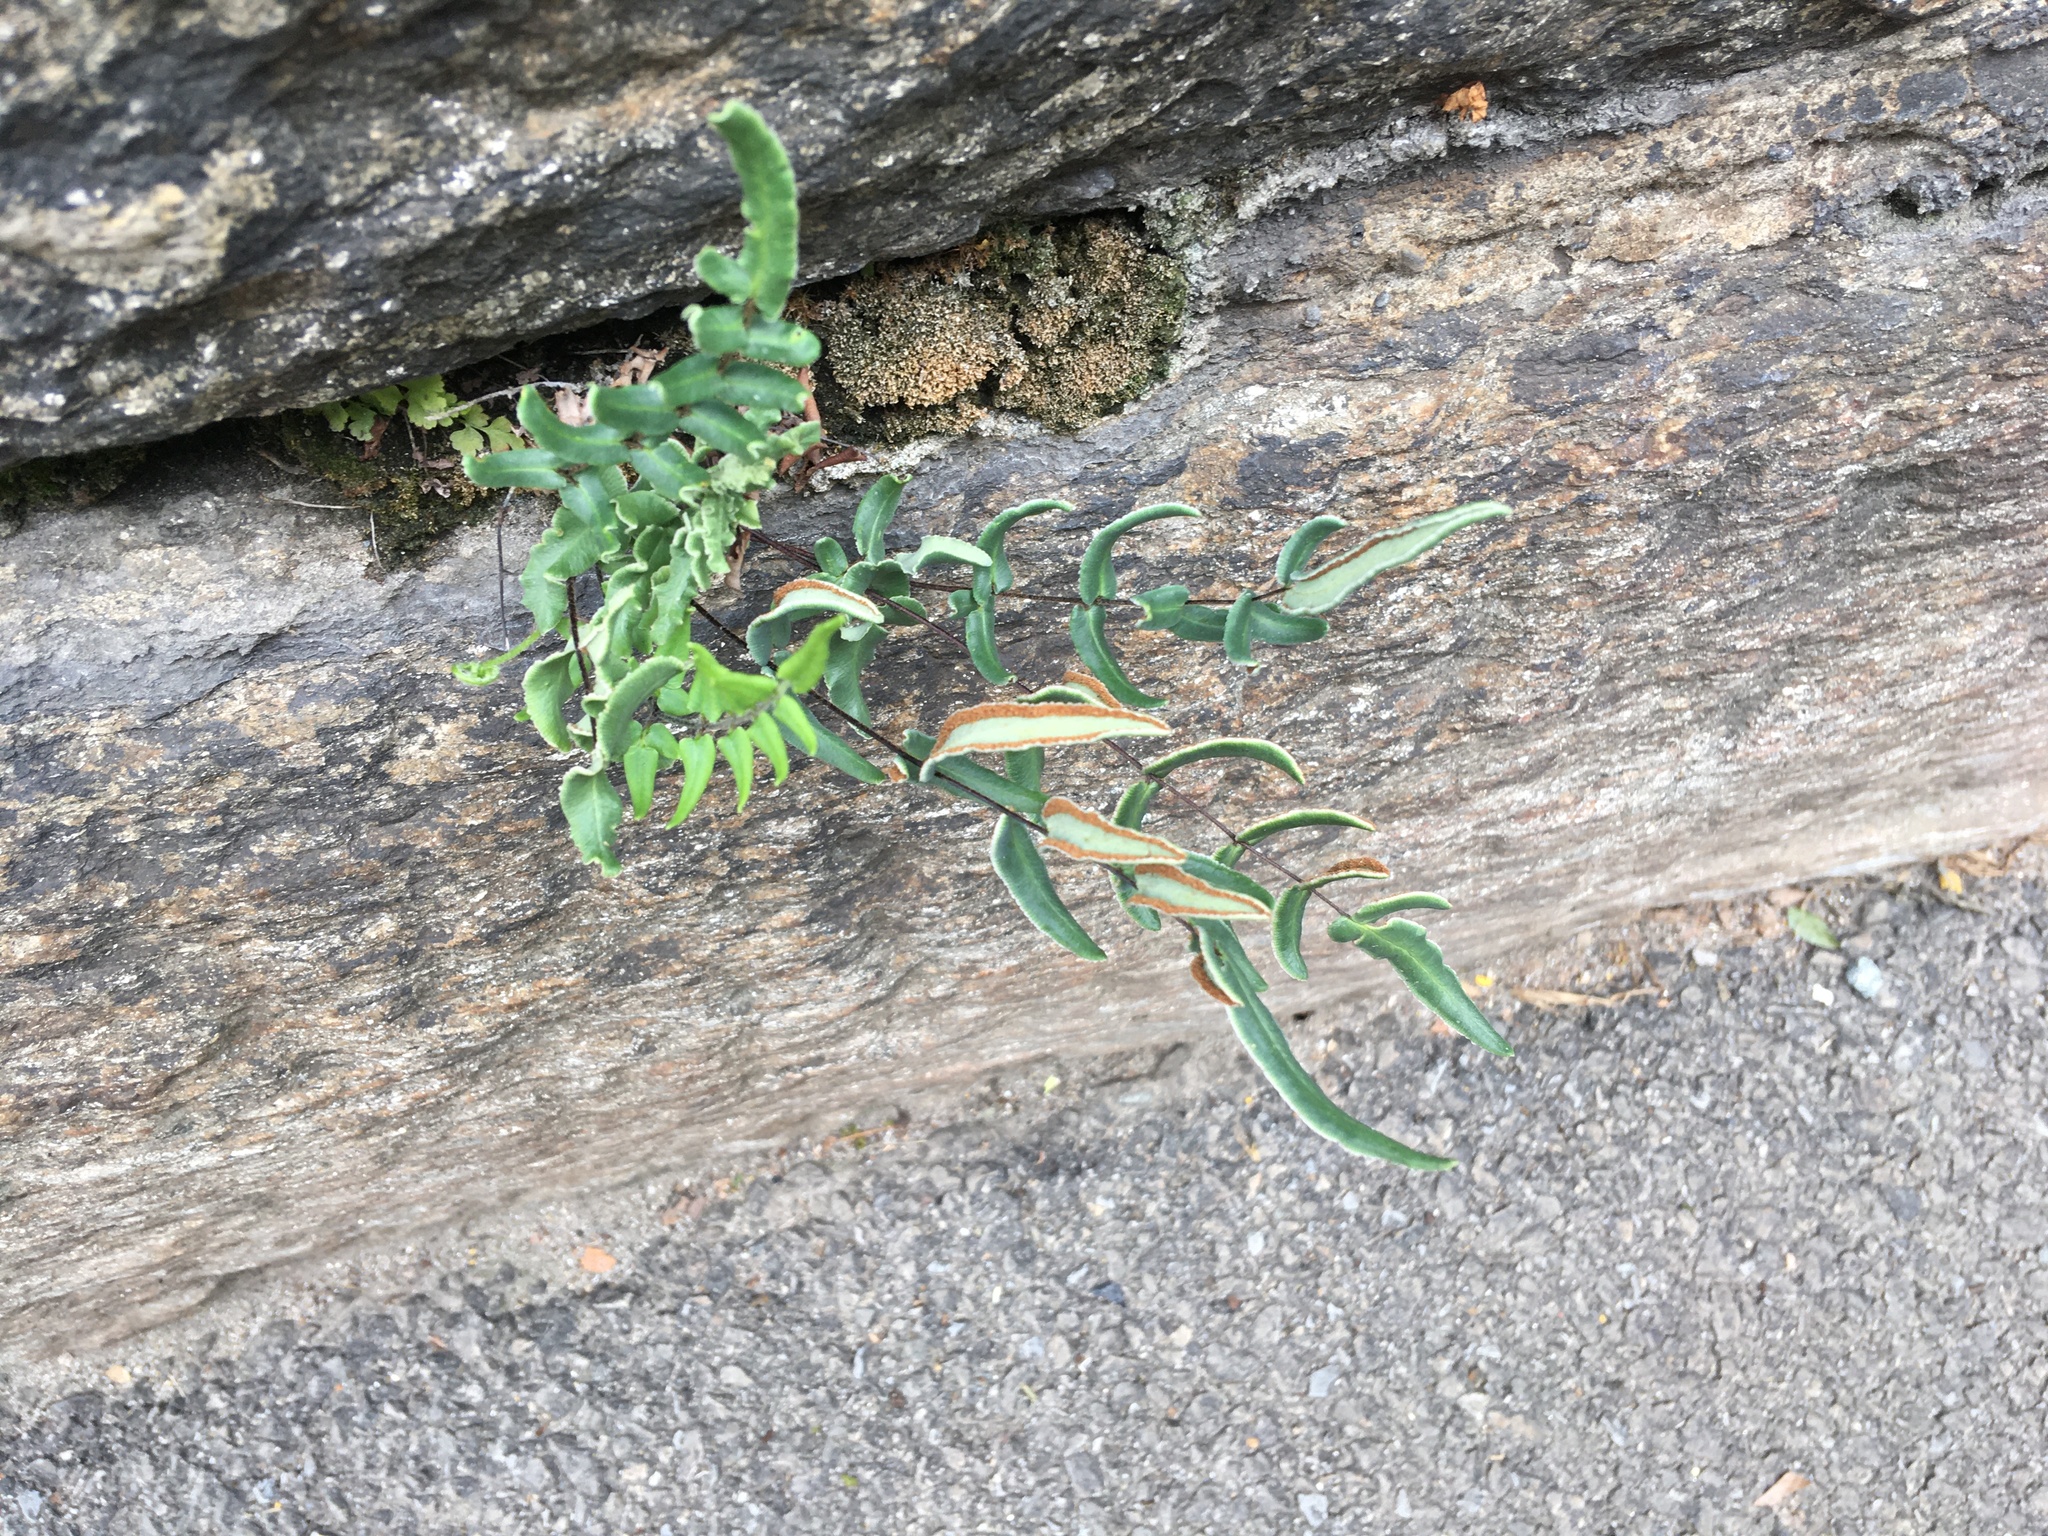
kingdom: Plantae
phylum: Tracheophyta
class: Polypodiopsida
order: Polypodiales
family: Pteridaceae
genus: Pellaea
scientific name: Pellaea atropurpurea
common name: Hairy cliffbrake
